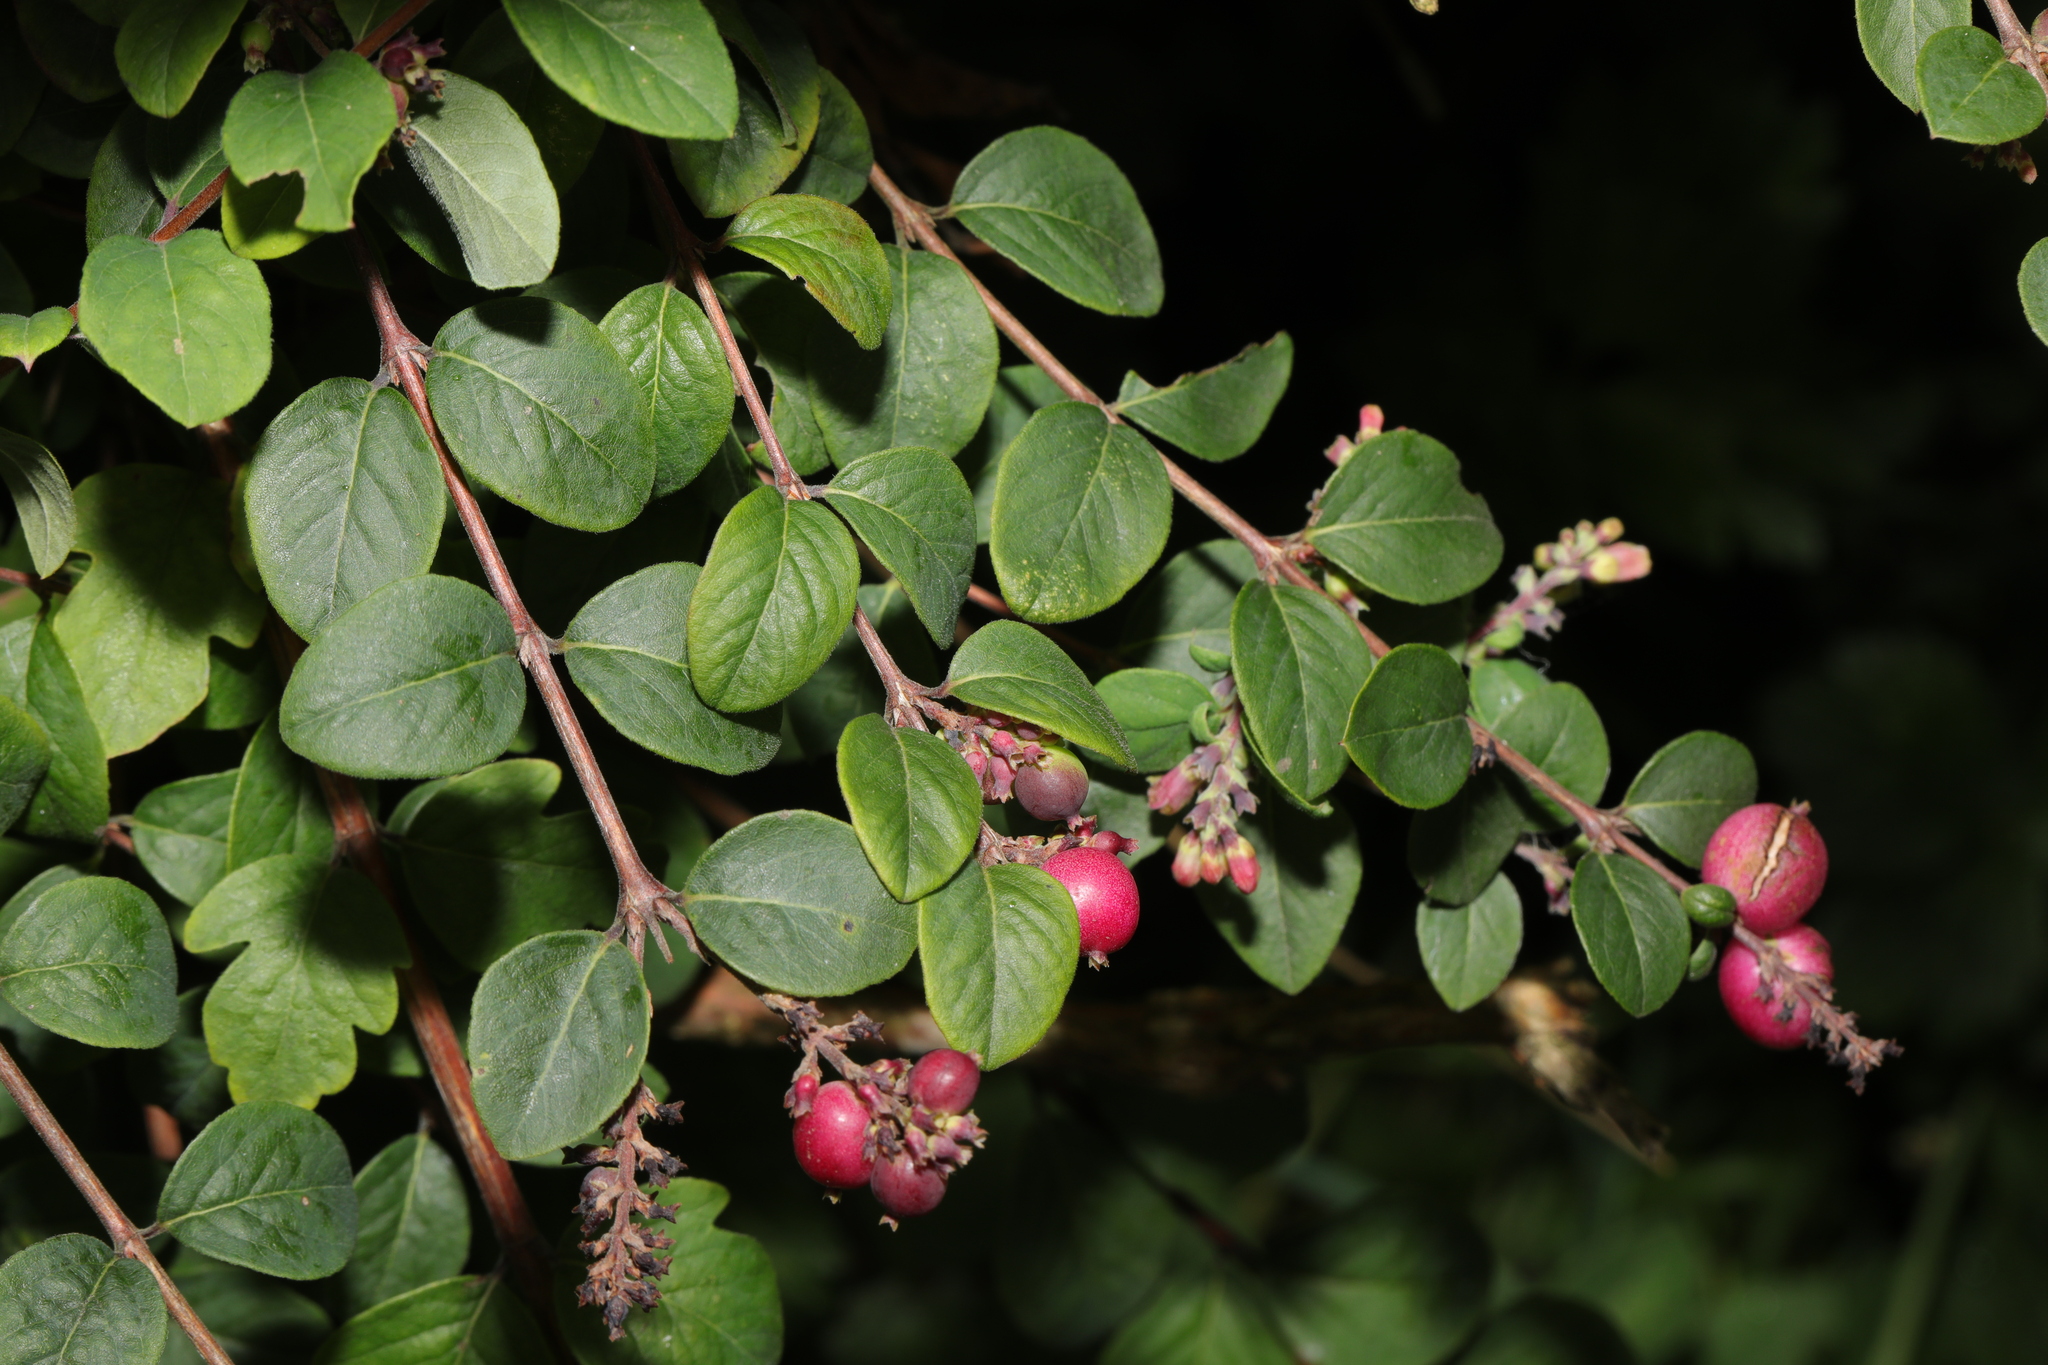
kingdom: Plantae
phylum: Tracheophyta
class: Magnoliopsida
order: Dipsacales
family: Caprifoliaceae
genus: Symphoricarpos
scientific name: Symphoricarpos orbiculatus
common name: Coralberry
